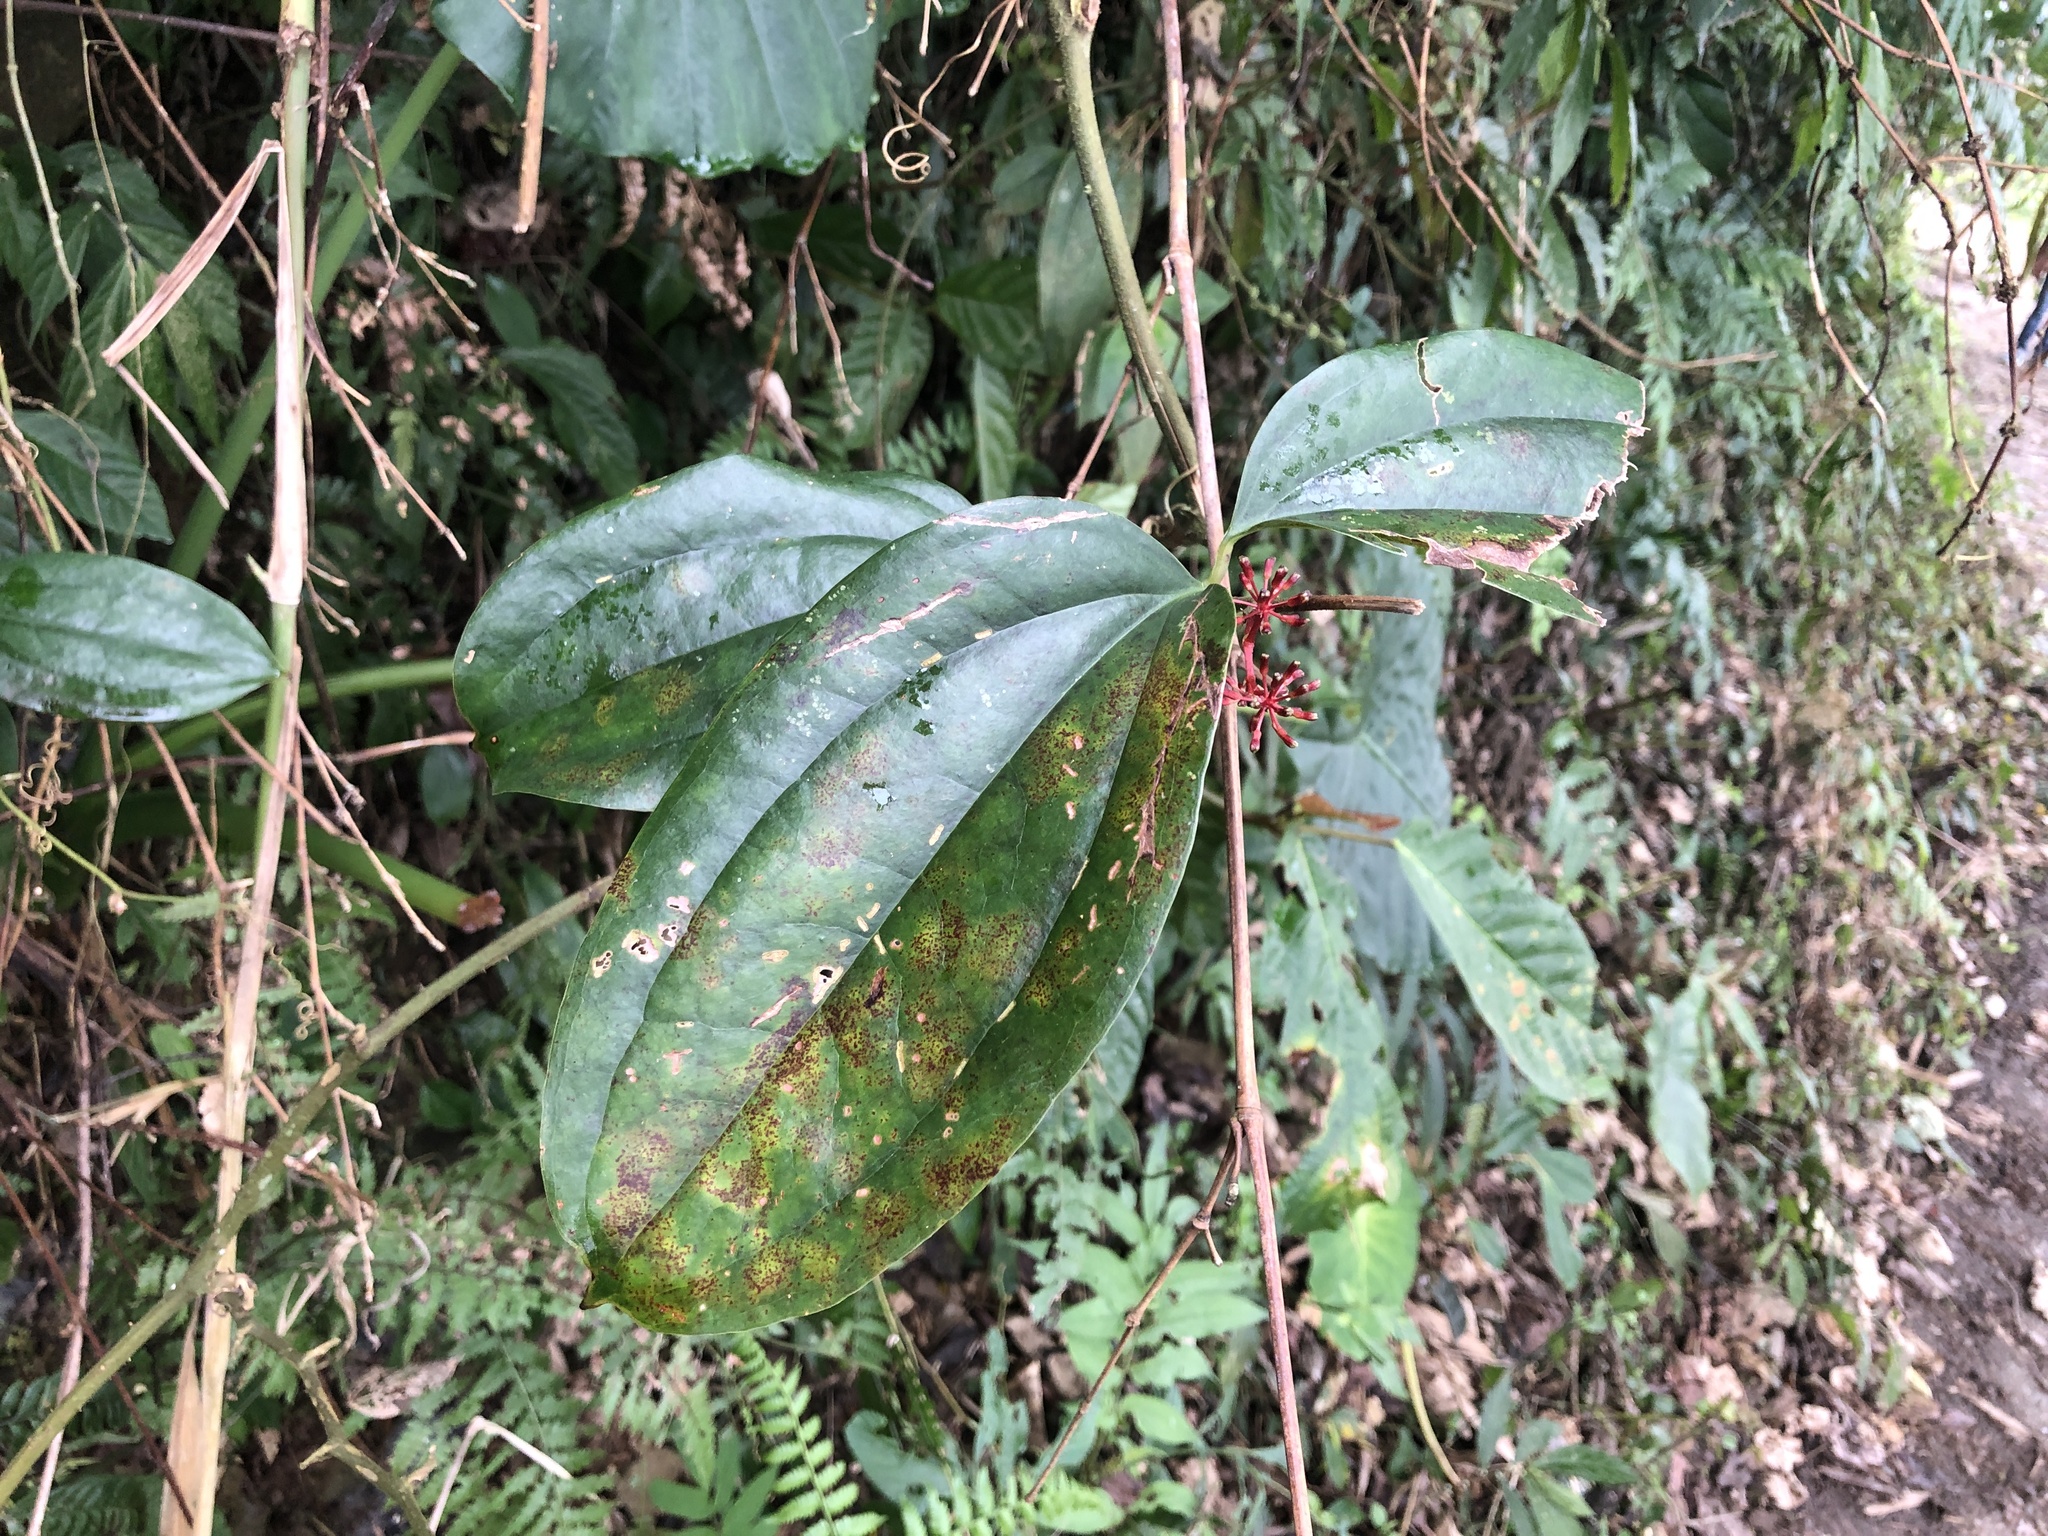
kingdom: Plantae
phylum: Tracheophyta
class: Liliopsida
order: Liliales
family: Smilacaceae
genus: Smilax
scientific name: Smilax aspericaulis
